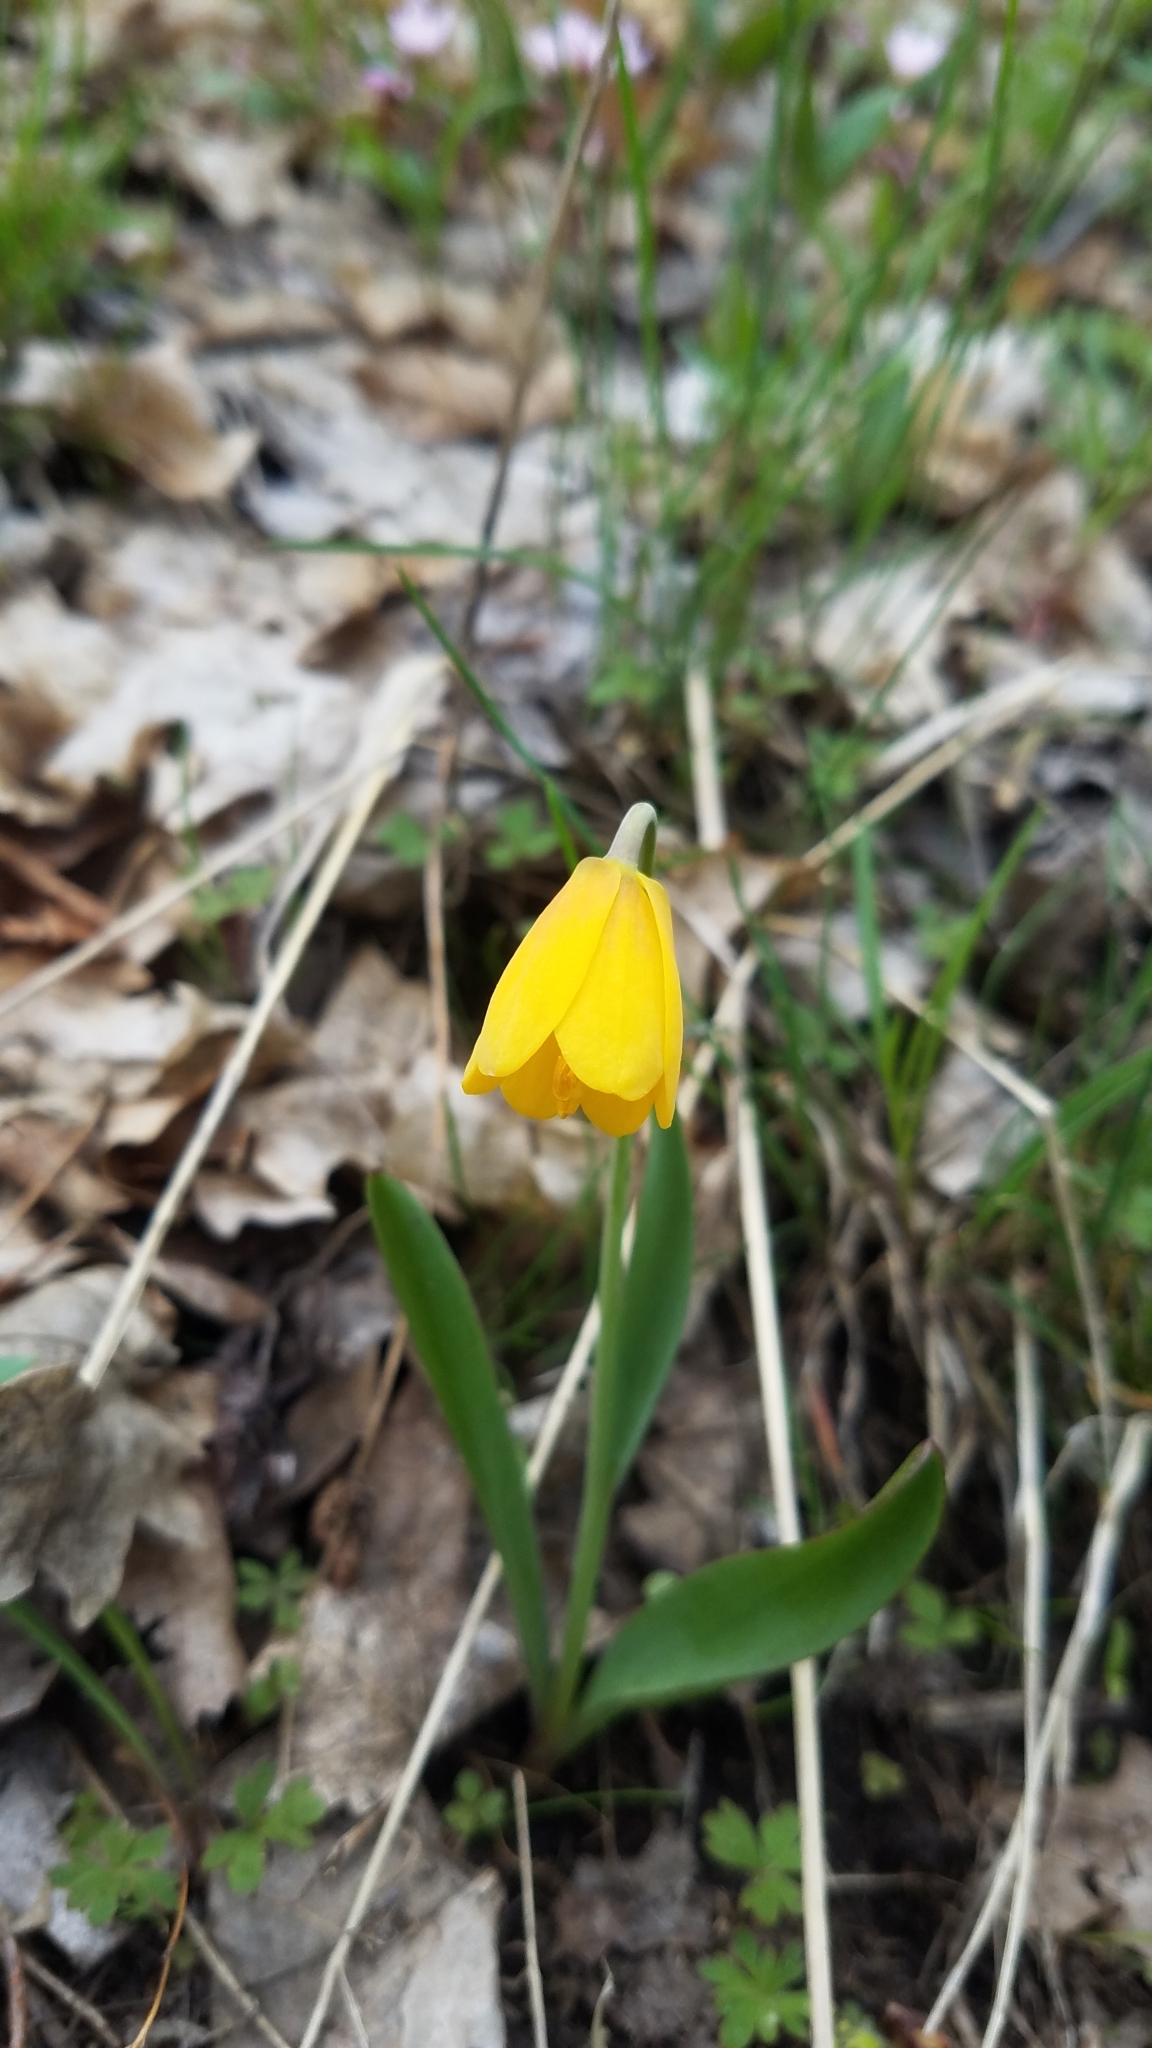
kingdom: Plantae
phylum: Tracheophyta
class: Liliopsida
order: Liliales
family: Liliaceae
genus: Fritillaria
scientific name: Fritillaria pudica
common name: Yellow fritillary
